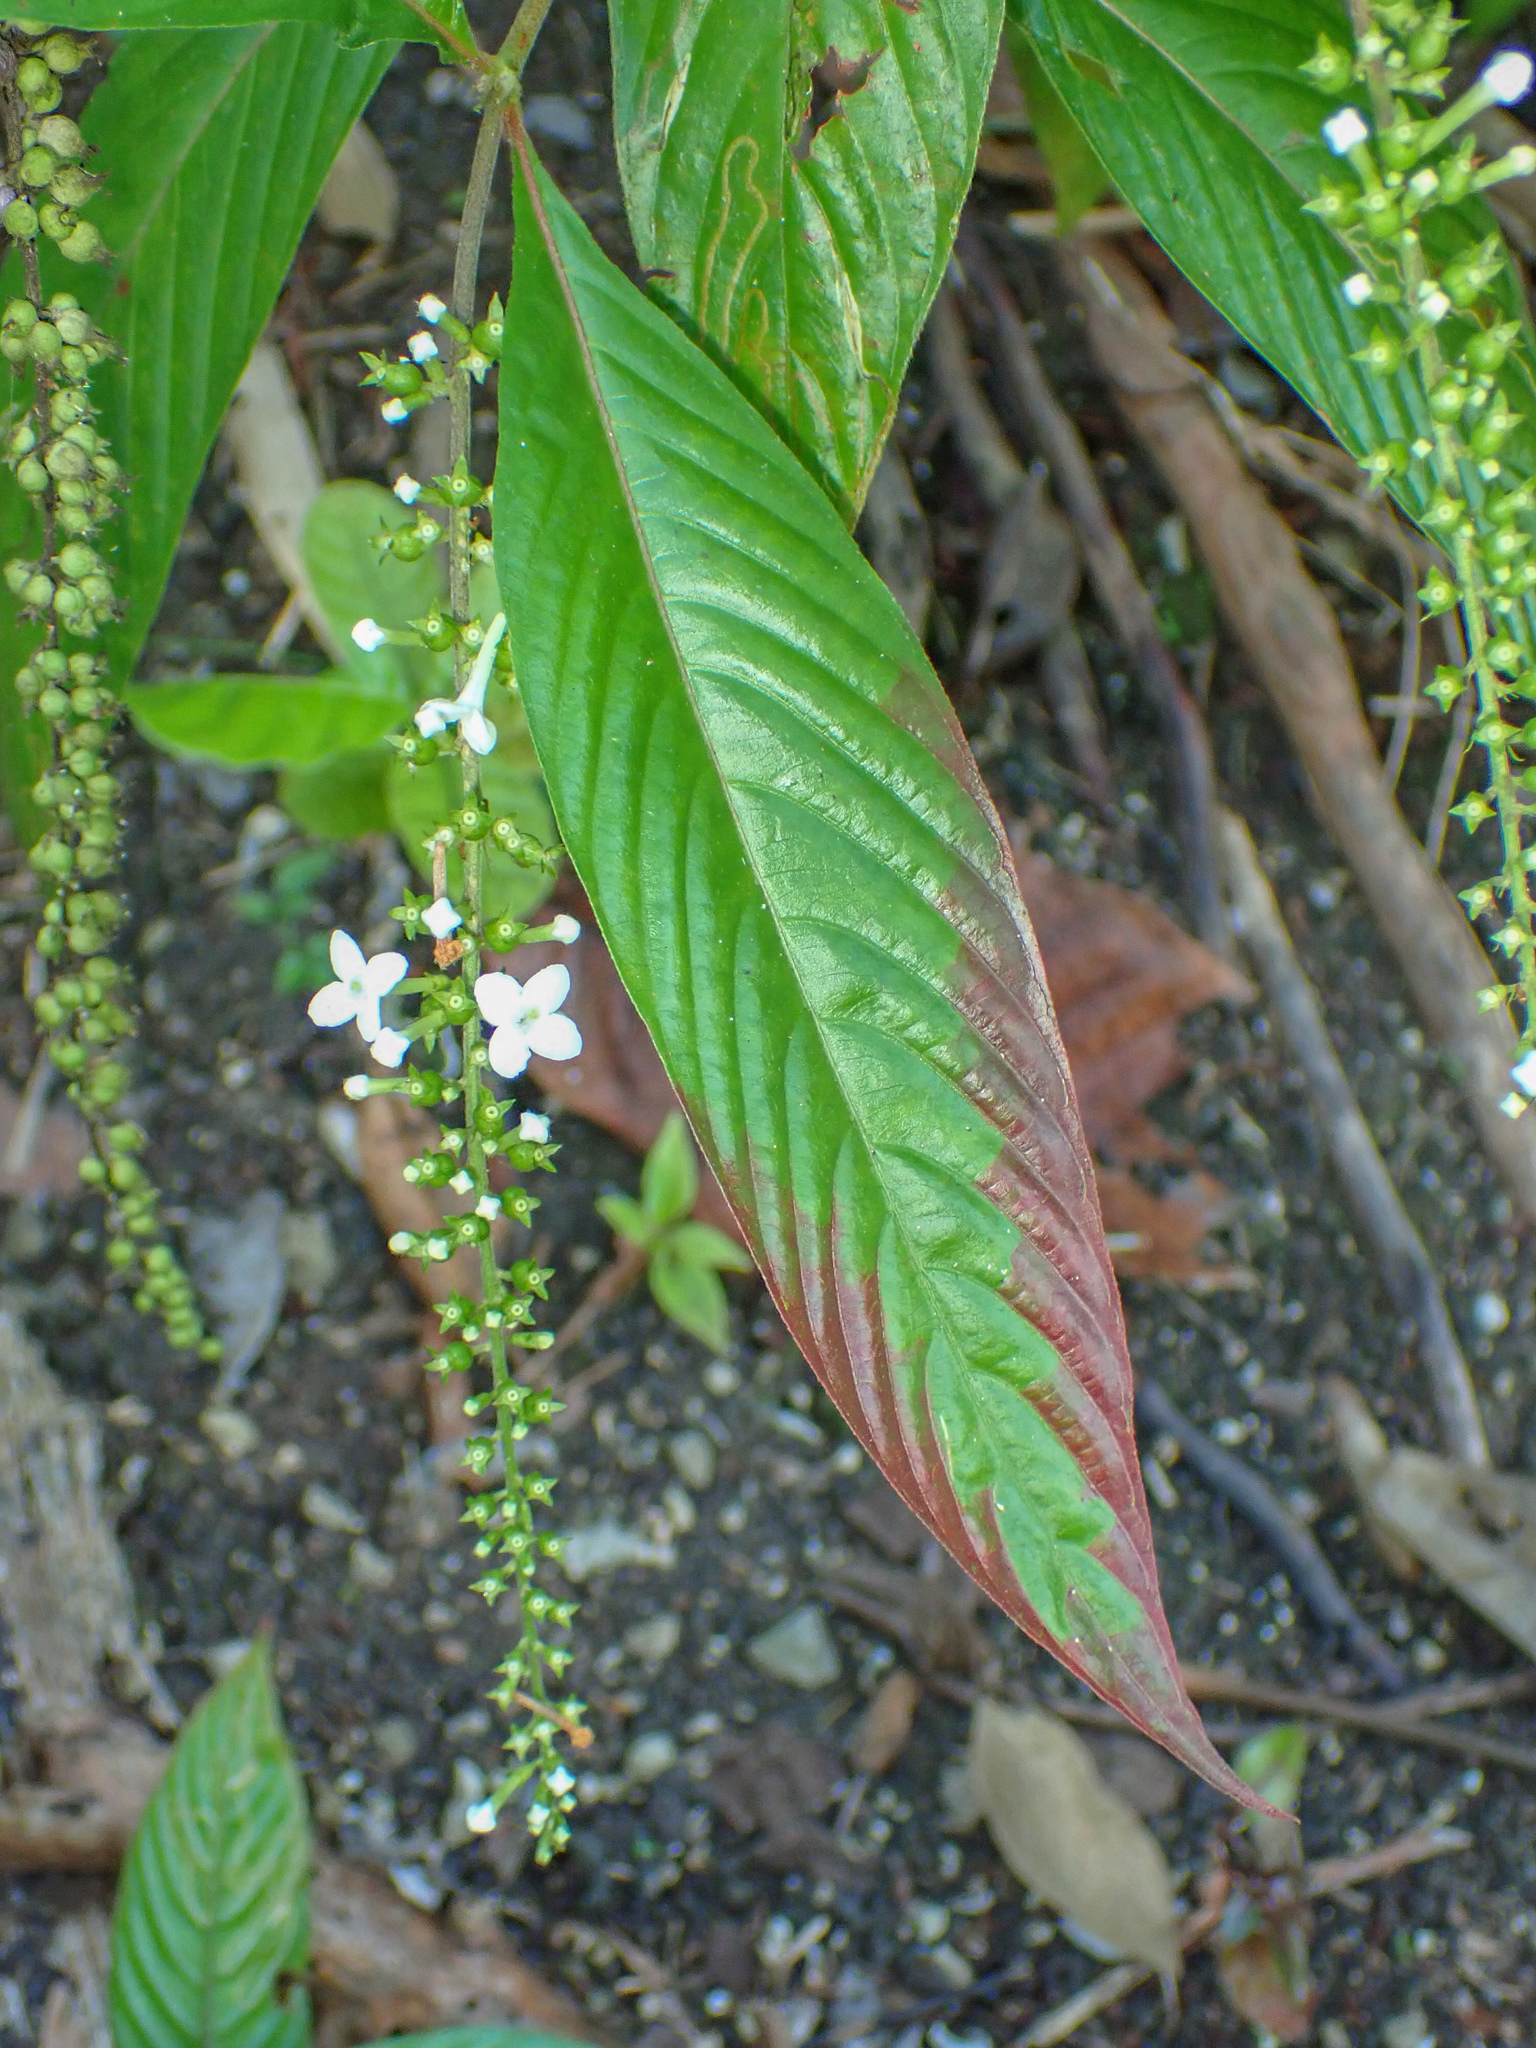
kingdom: Plantae
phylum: Tracheophyta
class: Magnoliopsida
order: Gentianales
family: Rubiaceae
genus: Gonzalagunia
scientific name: Gonzalagunia hirsuta
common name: Mata de mariposa
